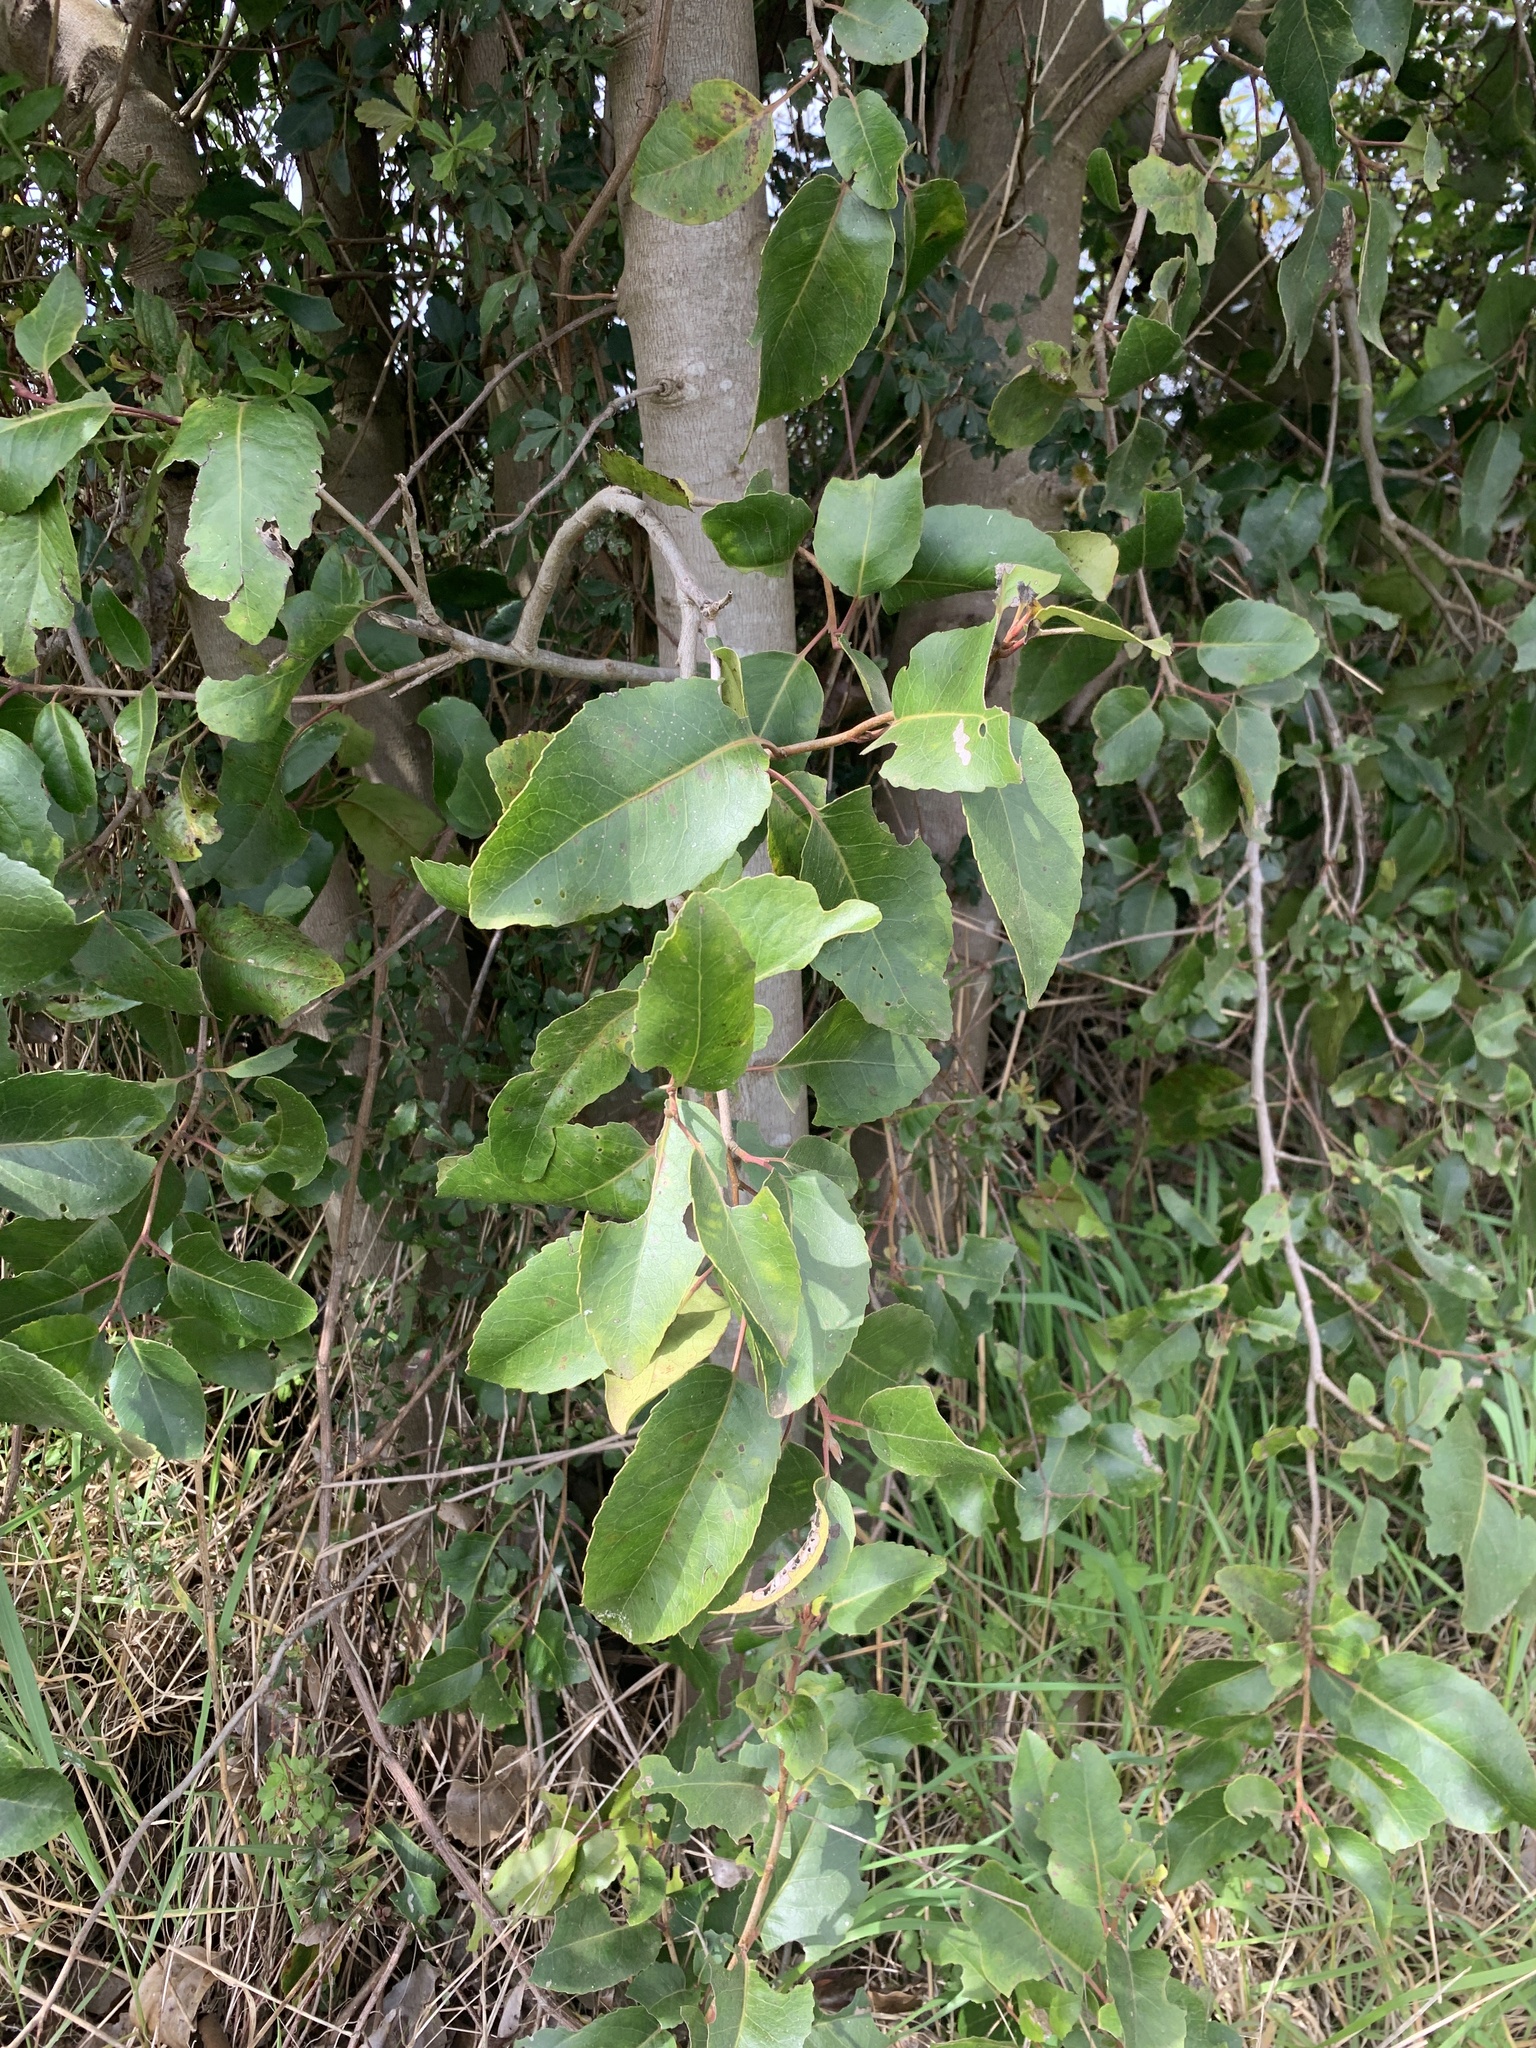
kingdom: Plantae
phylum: Tracheophyta
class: Magnoliopsida
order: Proteales
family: Proteaceae
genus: Lomatia
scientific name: Lomatia hirsuta
